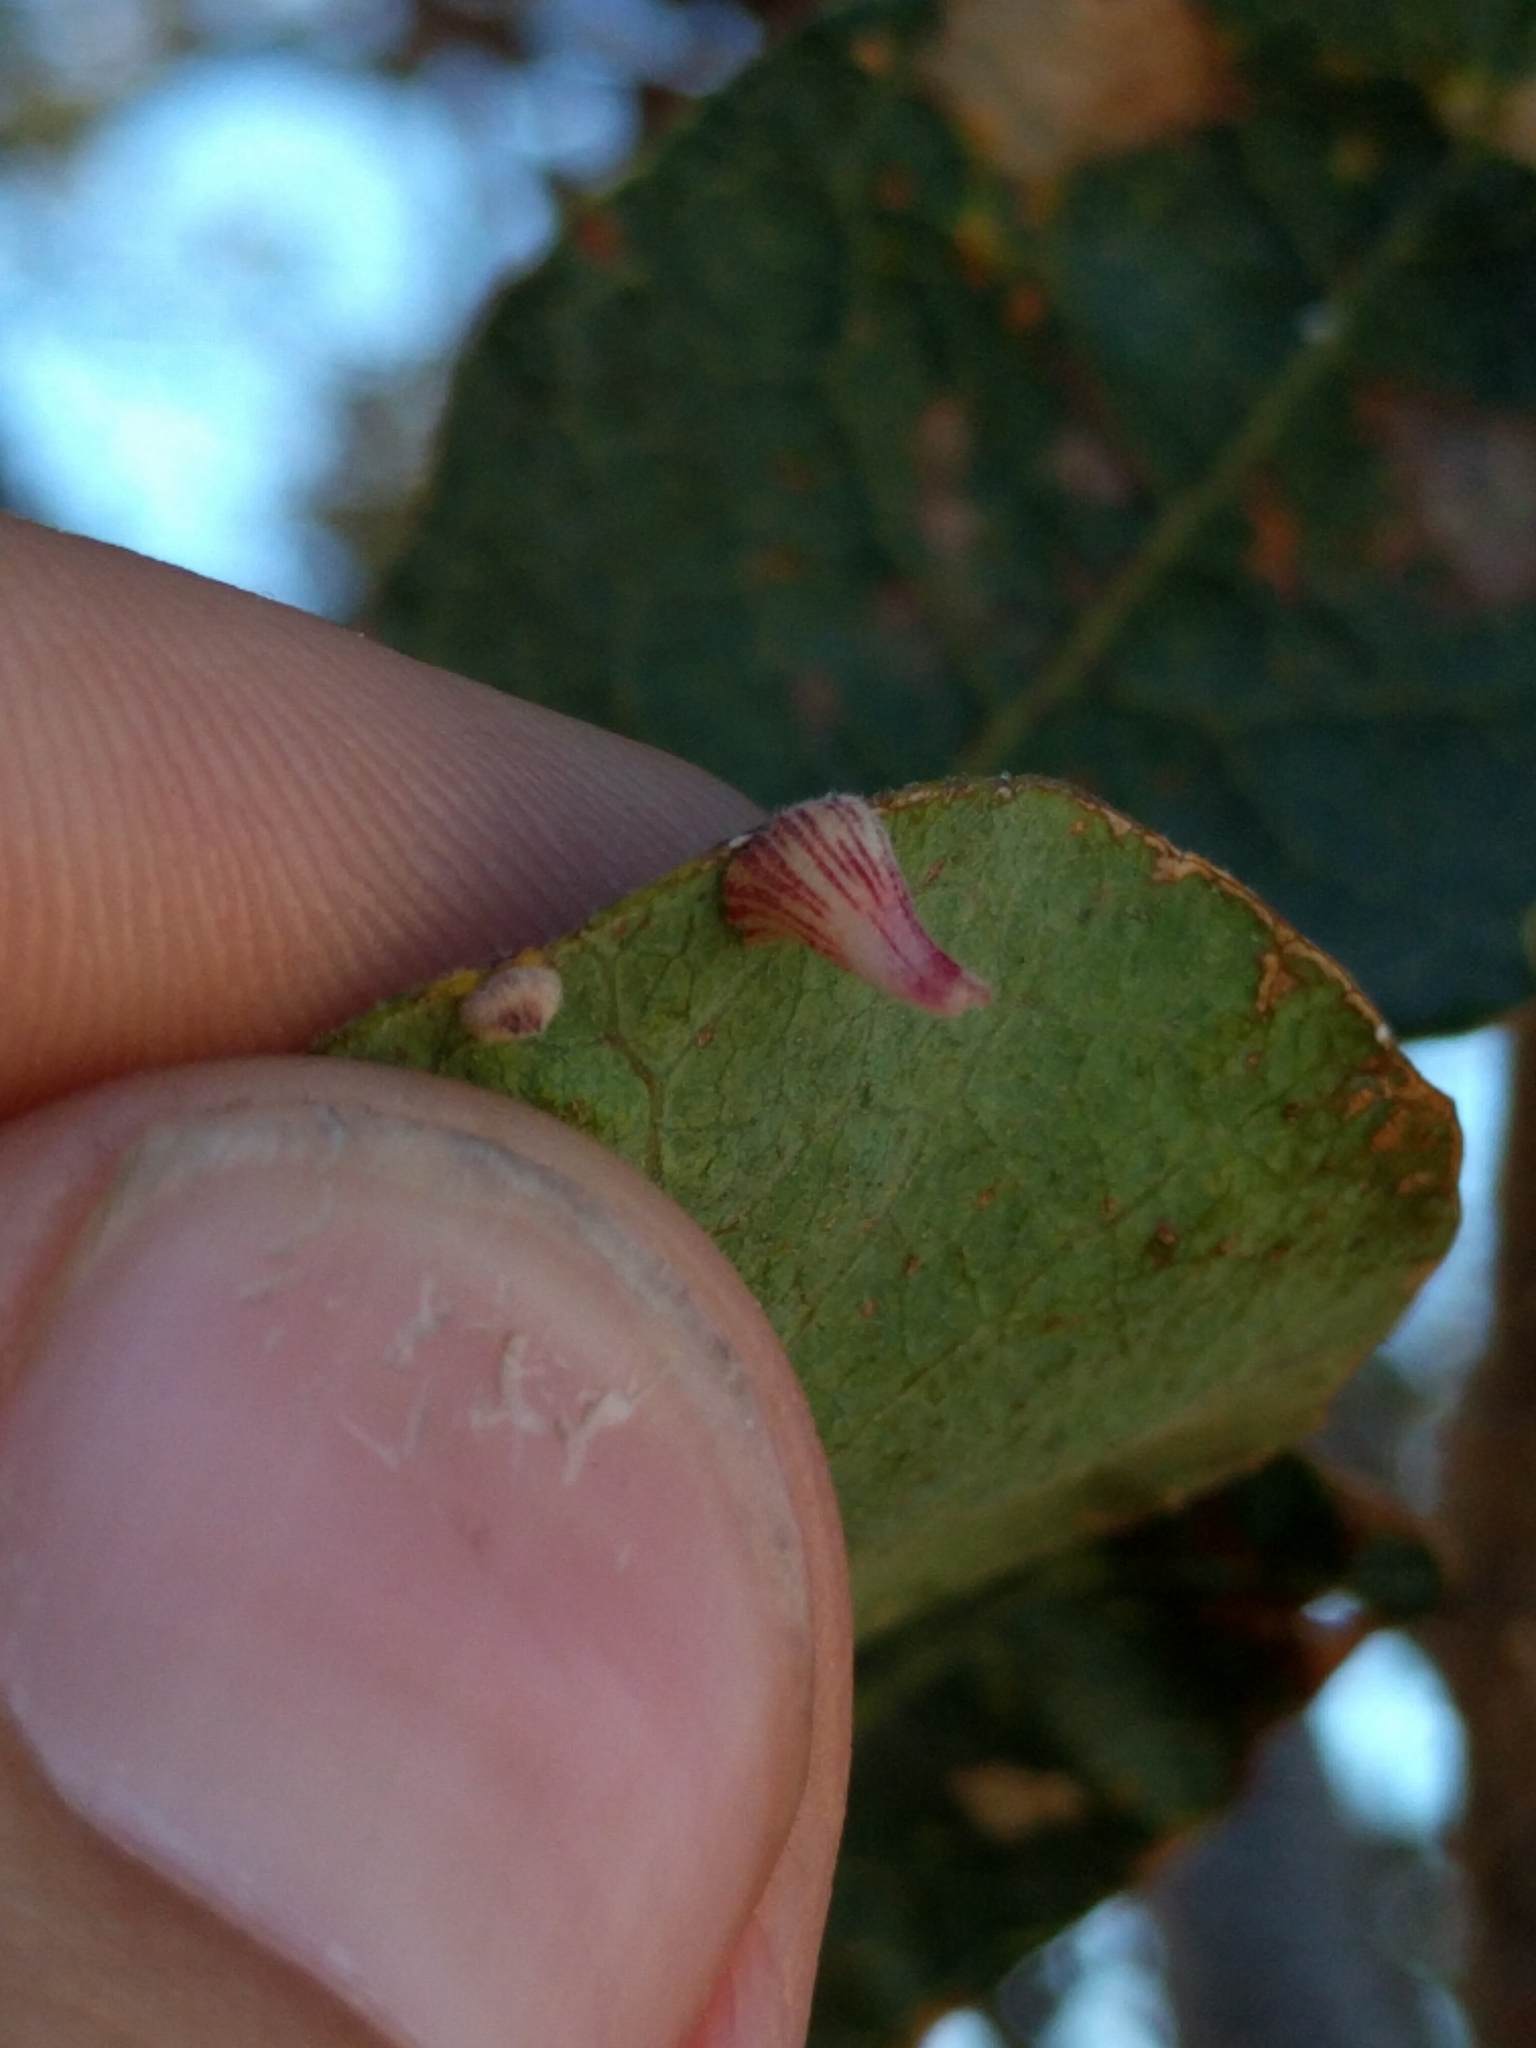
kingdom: Animalia
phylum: Arthropoda
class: Insecta
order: Hymenoptera
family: Cynipidae
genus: Andricus
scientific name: Andricus
